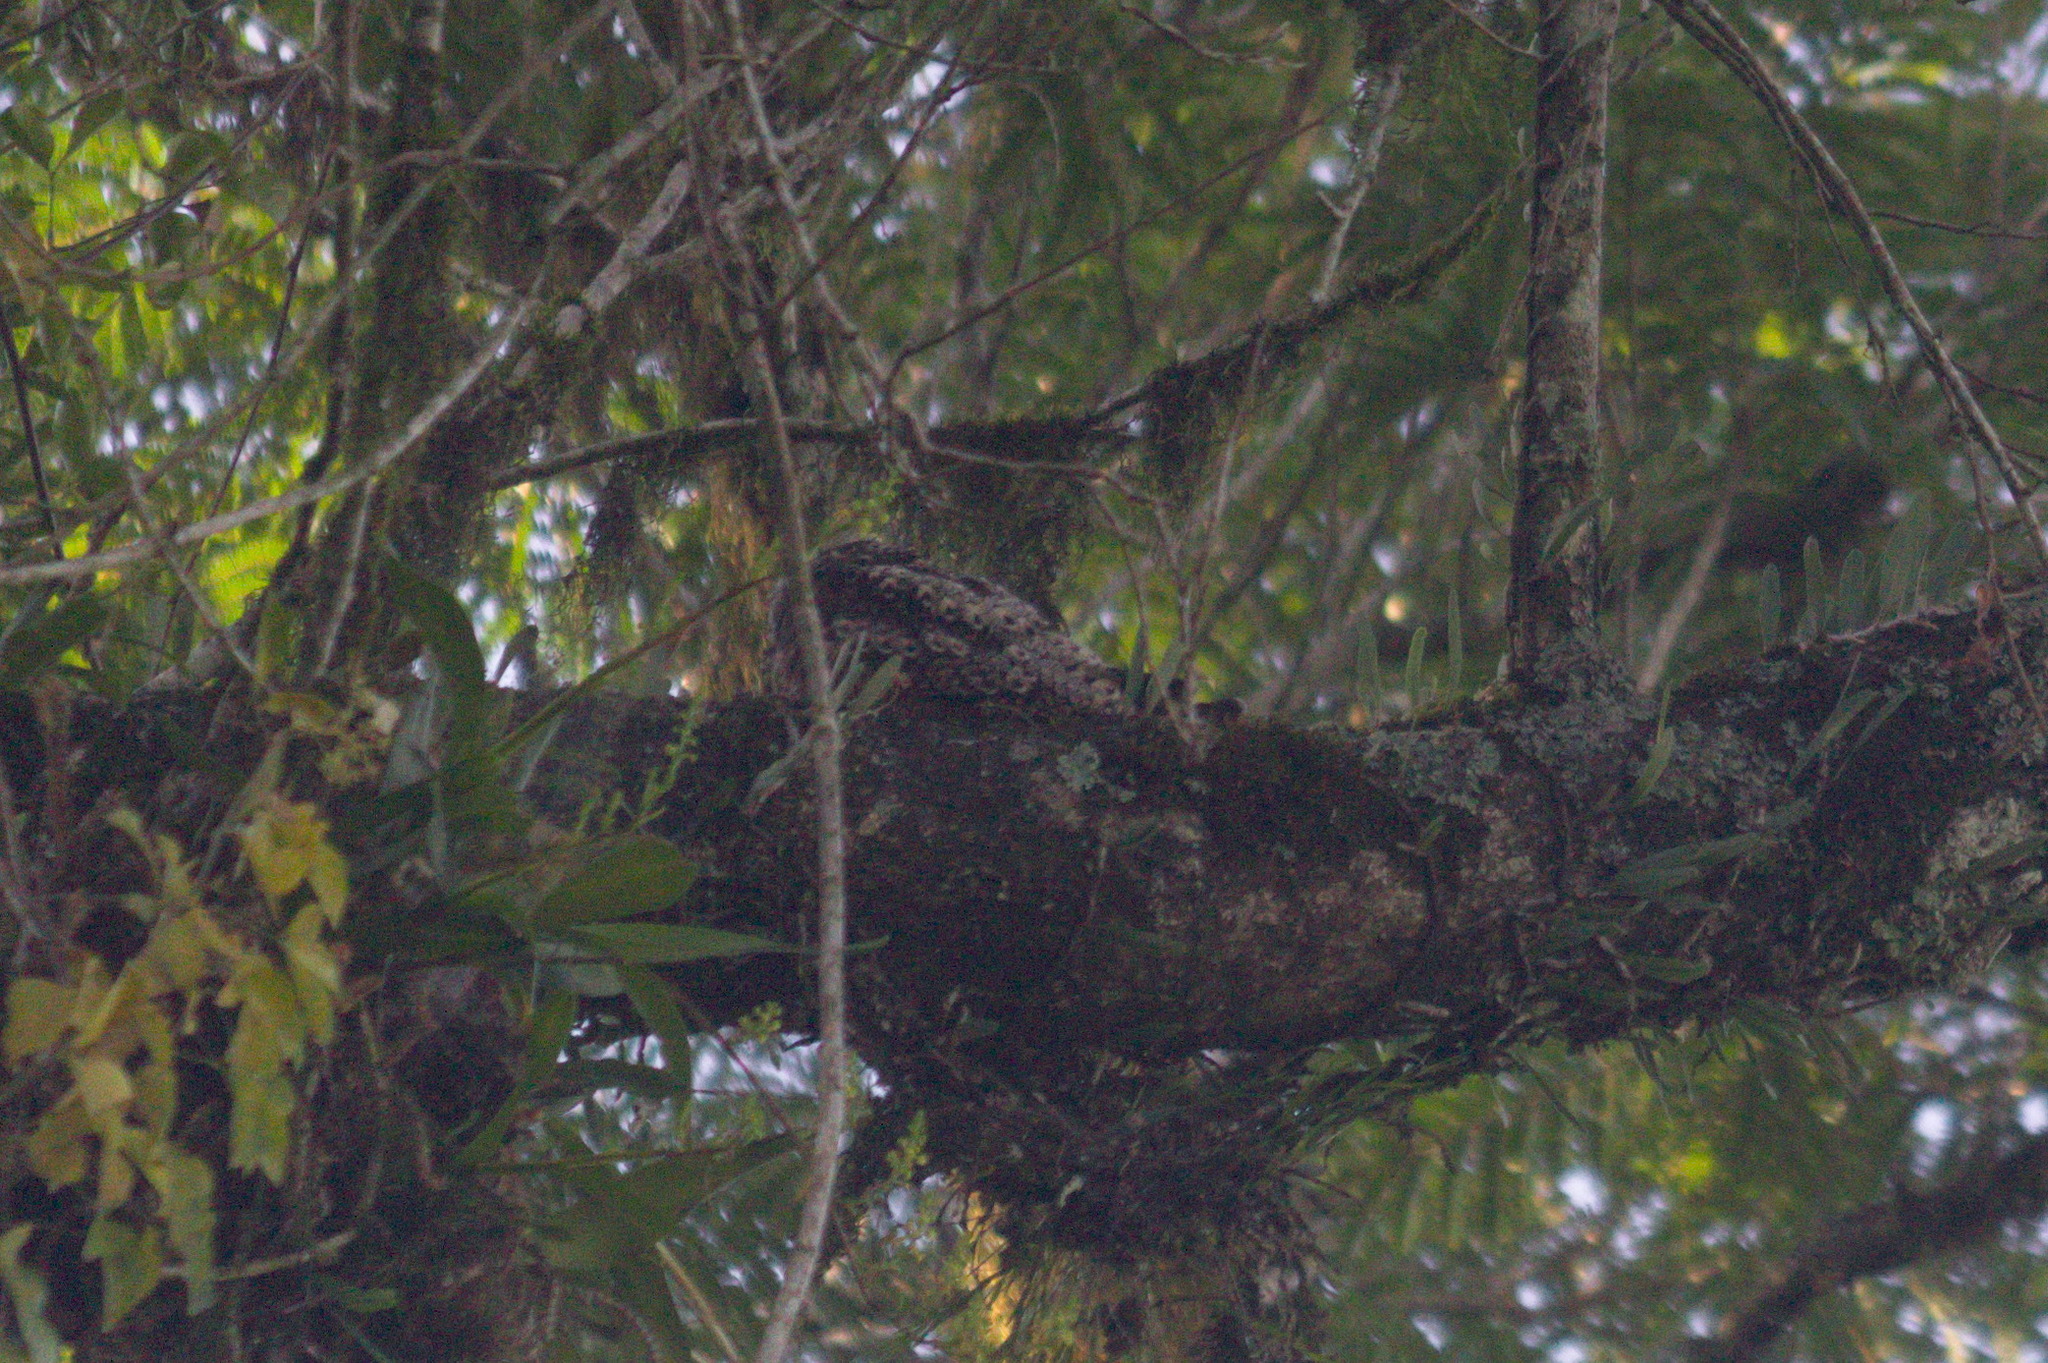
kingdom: Animalia
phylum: Chordata
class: Aves
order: Caprimulgiformes
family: Caprimulgidae
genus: Lurocalis
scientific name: Lurocalis semitorquatus
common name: Short-tailed nighthawk
